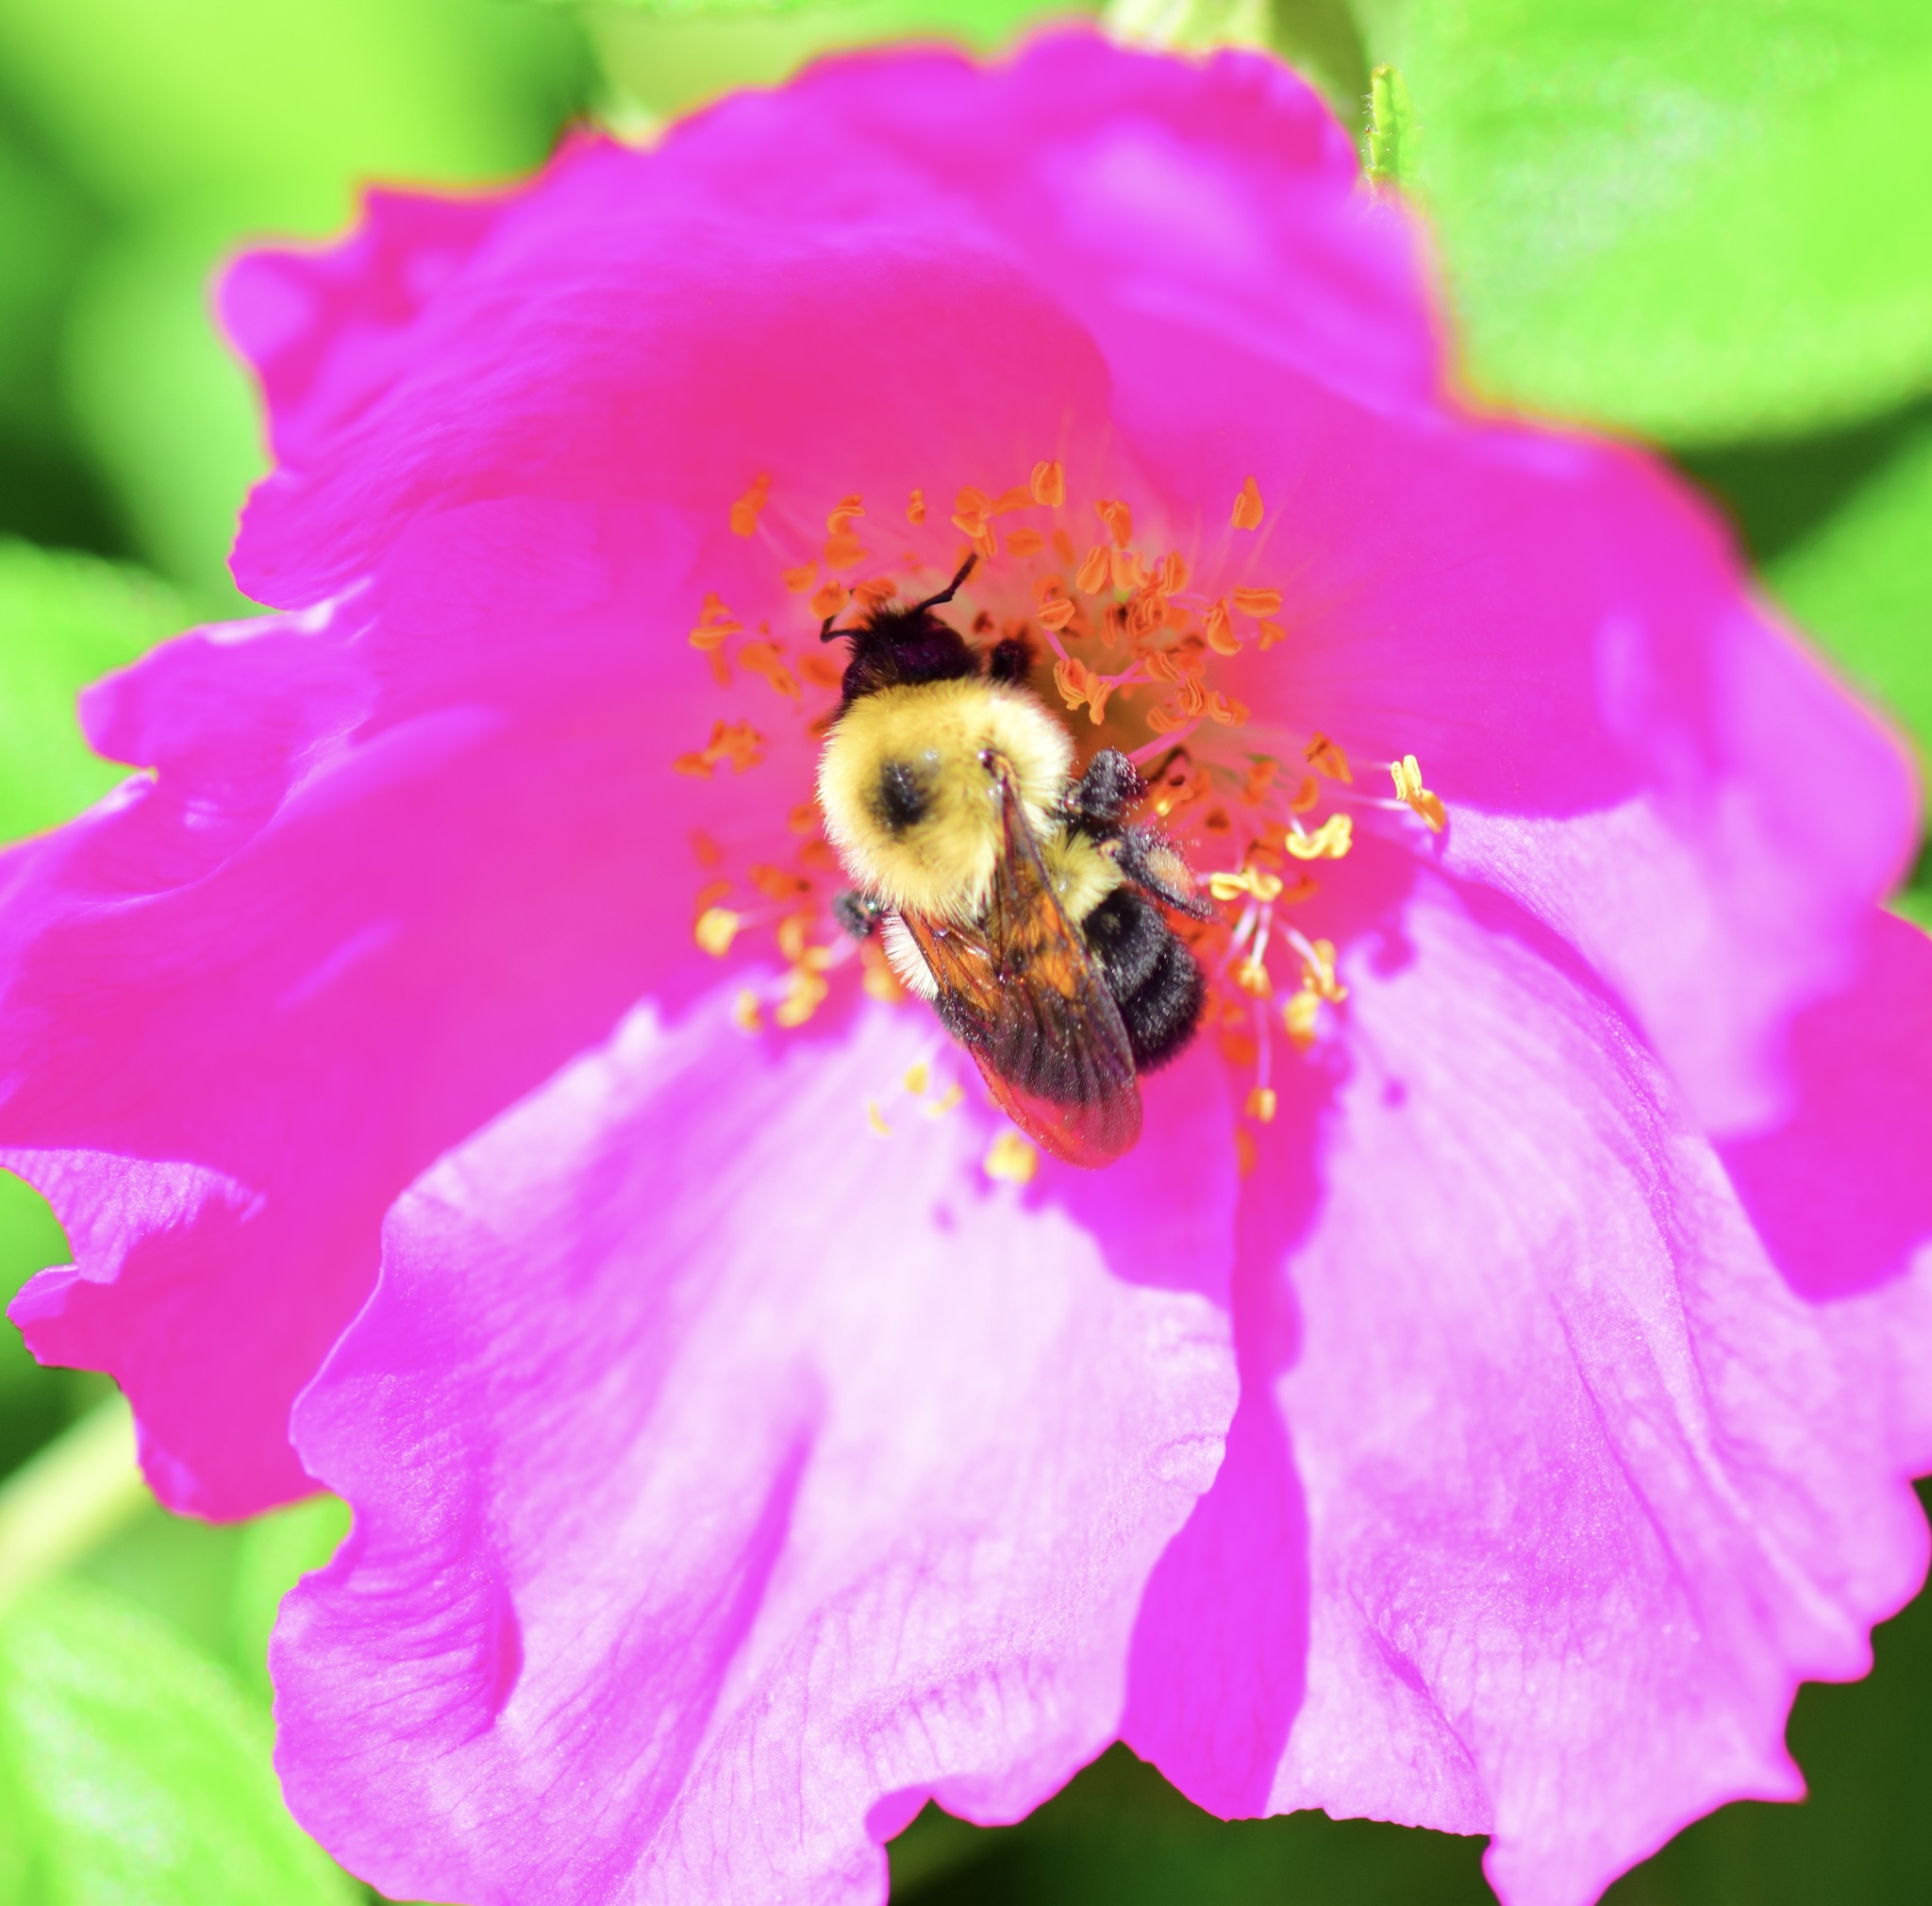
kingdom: Animalia
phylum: Arthropoda
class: Insecta
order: Hymenoptera
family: Apidae
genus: Bombus
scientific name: Bombus bimaculatus
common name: Two-spotted bumble bee
